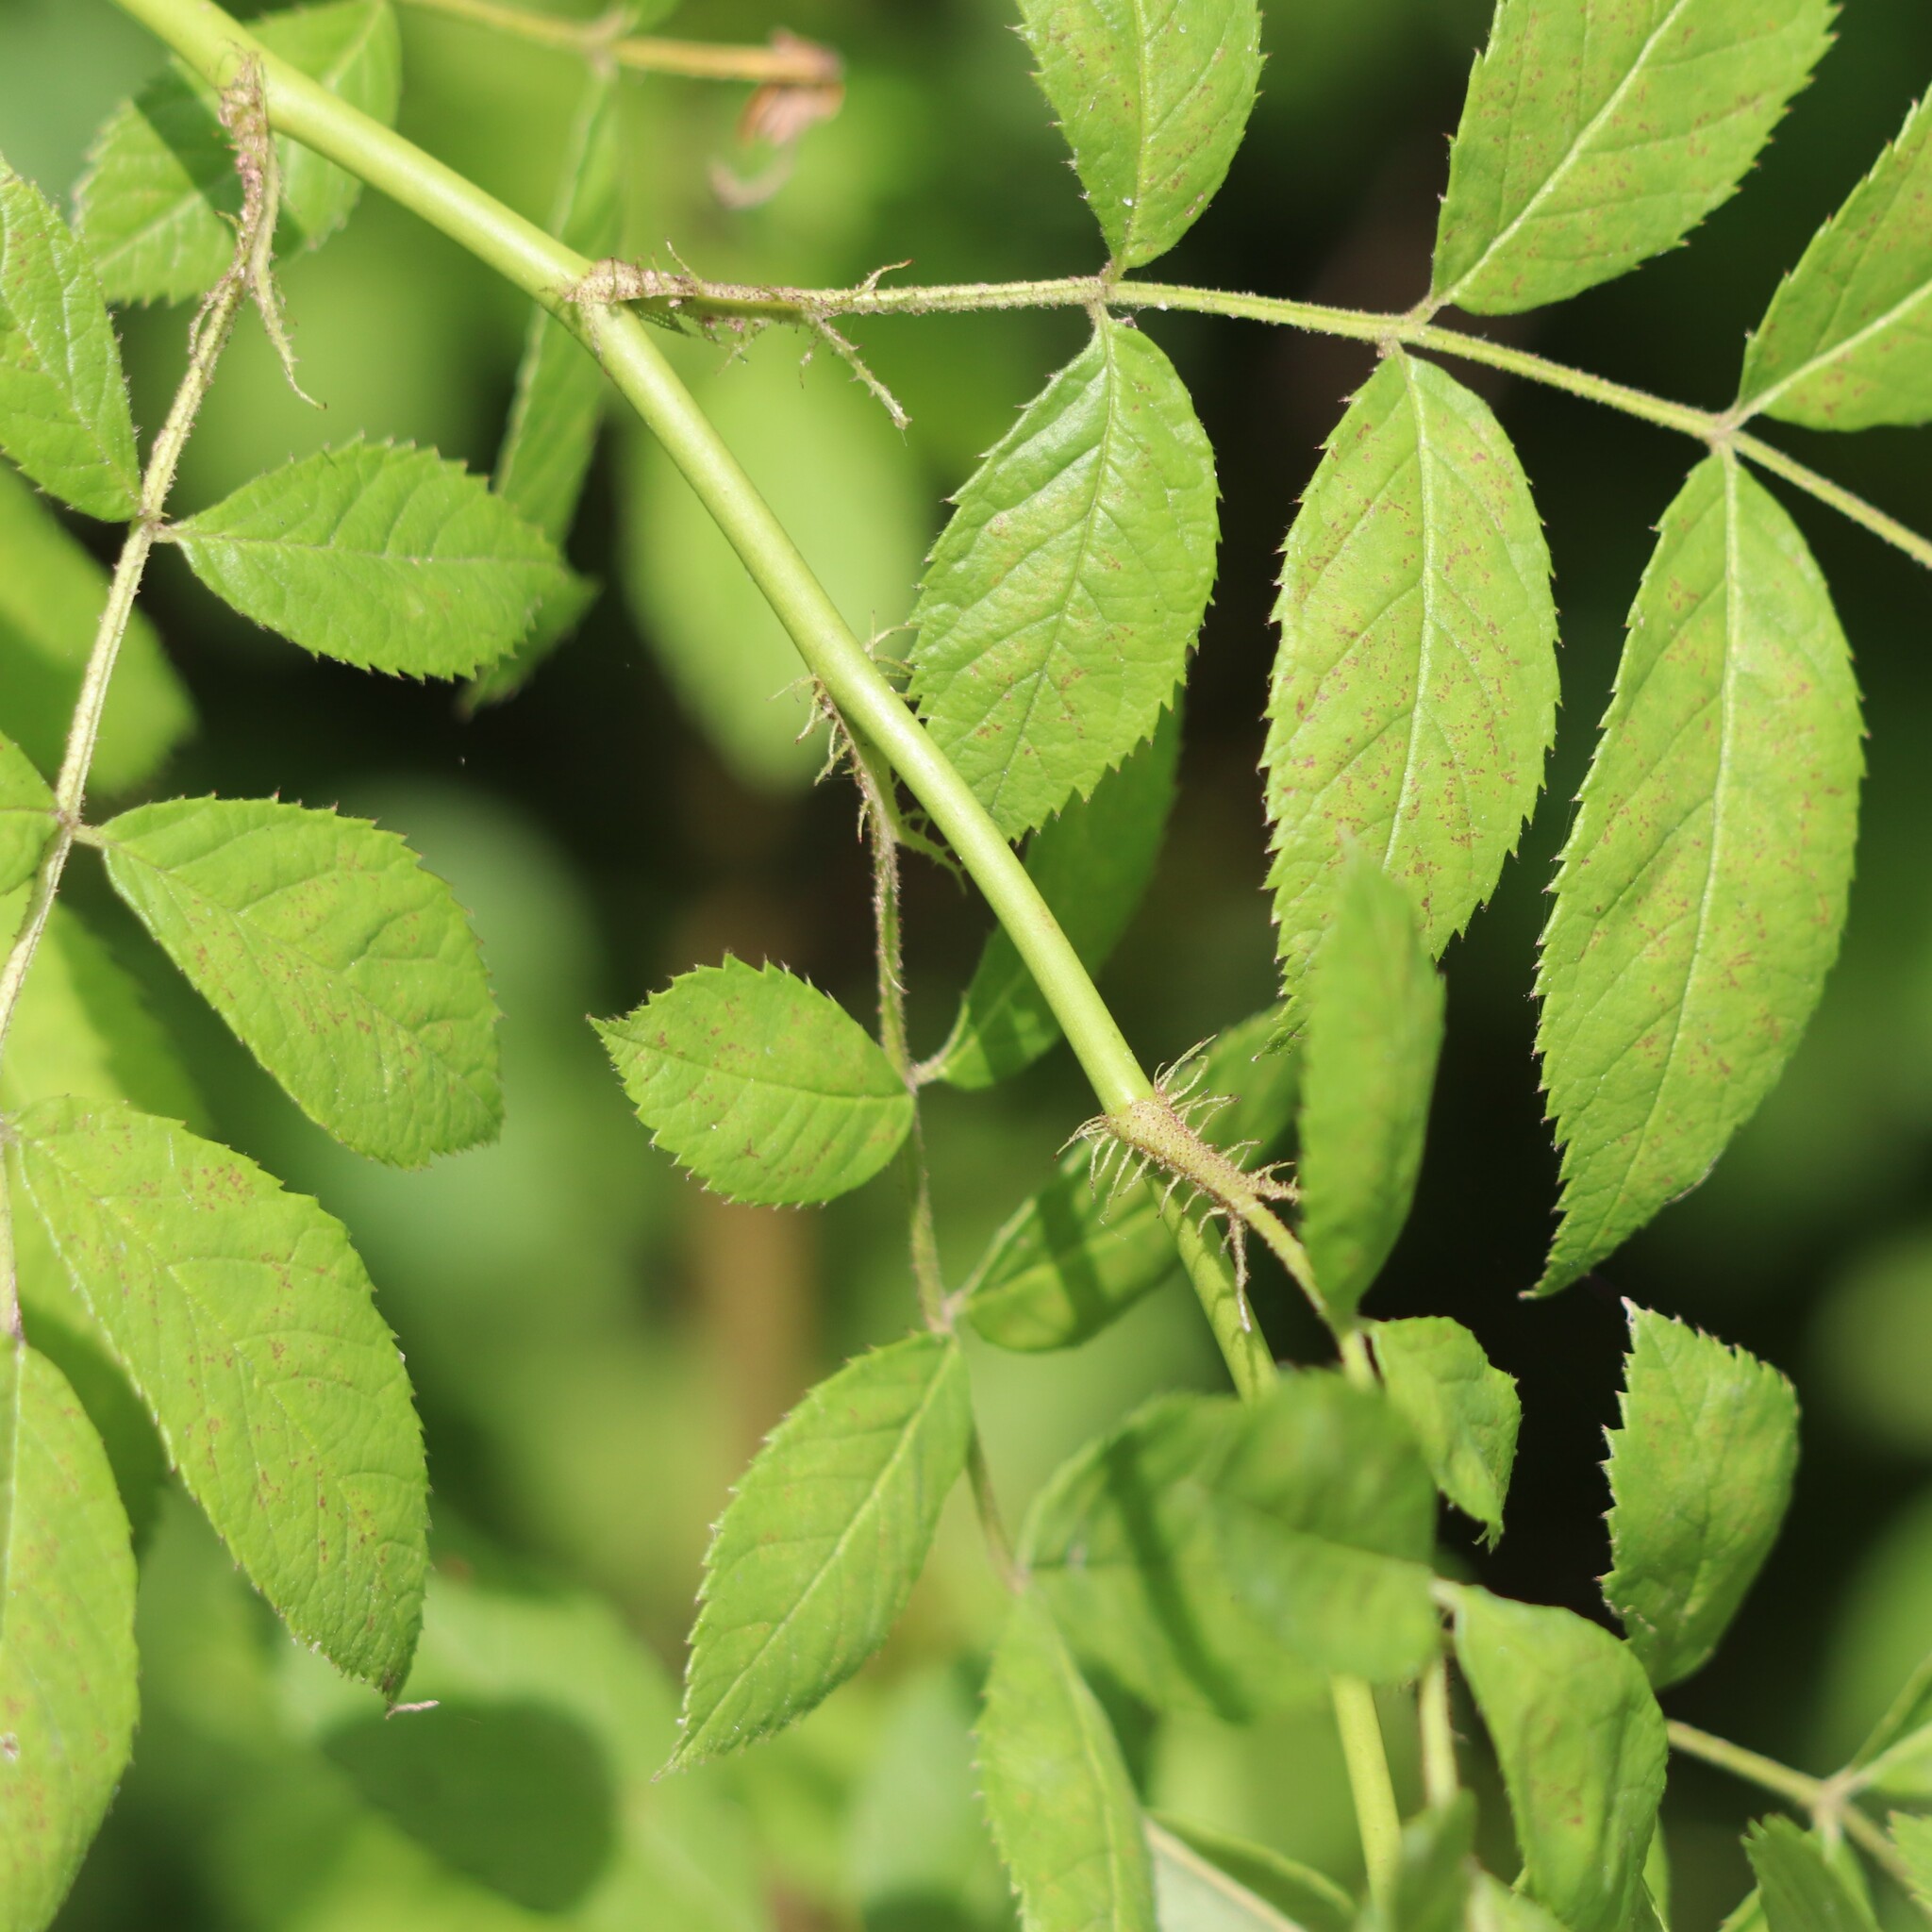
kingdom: Plantae
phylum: Tracheophyta
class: Magnoliopsida
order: Rosales
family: Rosaceae
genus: Rosa
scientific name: Rosa multiflora
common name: Multiflora rose
